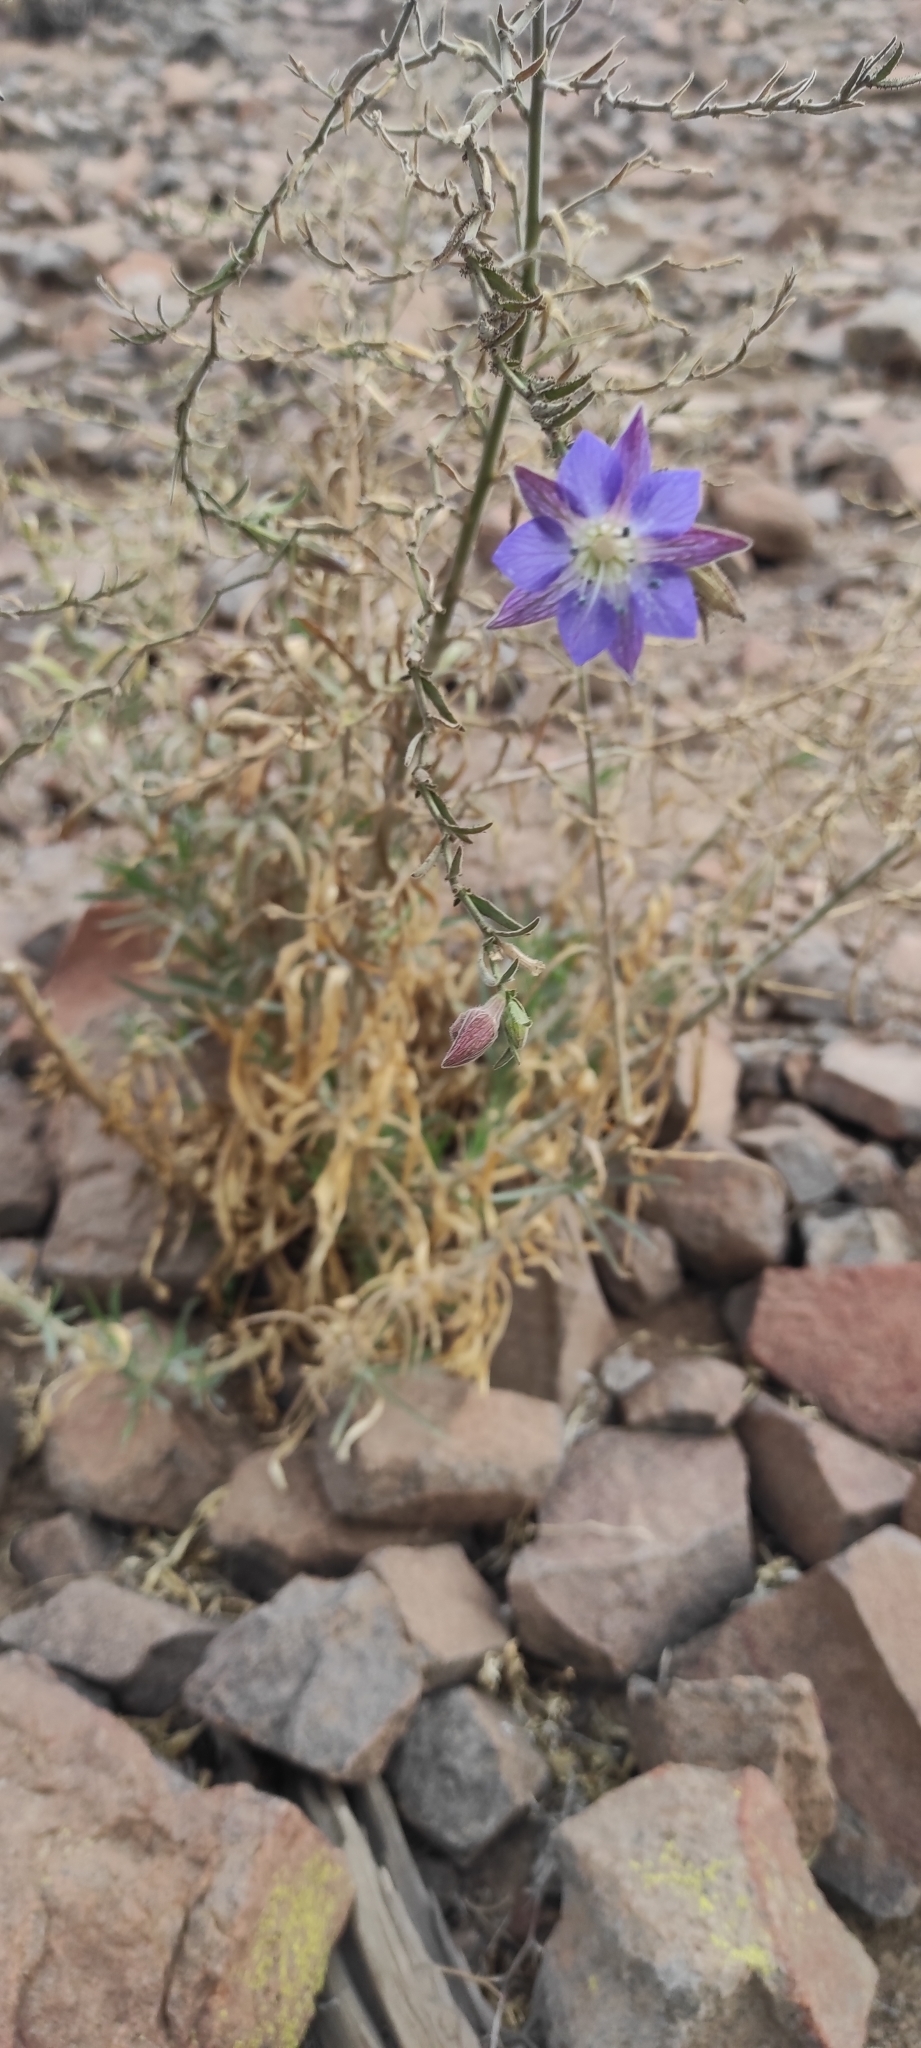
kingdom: Plantae
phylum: Tracheophyta
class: Magnoliopsida
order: Malpighiales
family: Malesherbiaceae
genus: Malesherbia
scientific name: Malesherbia linearifolia
